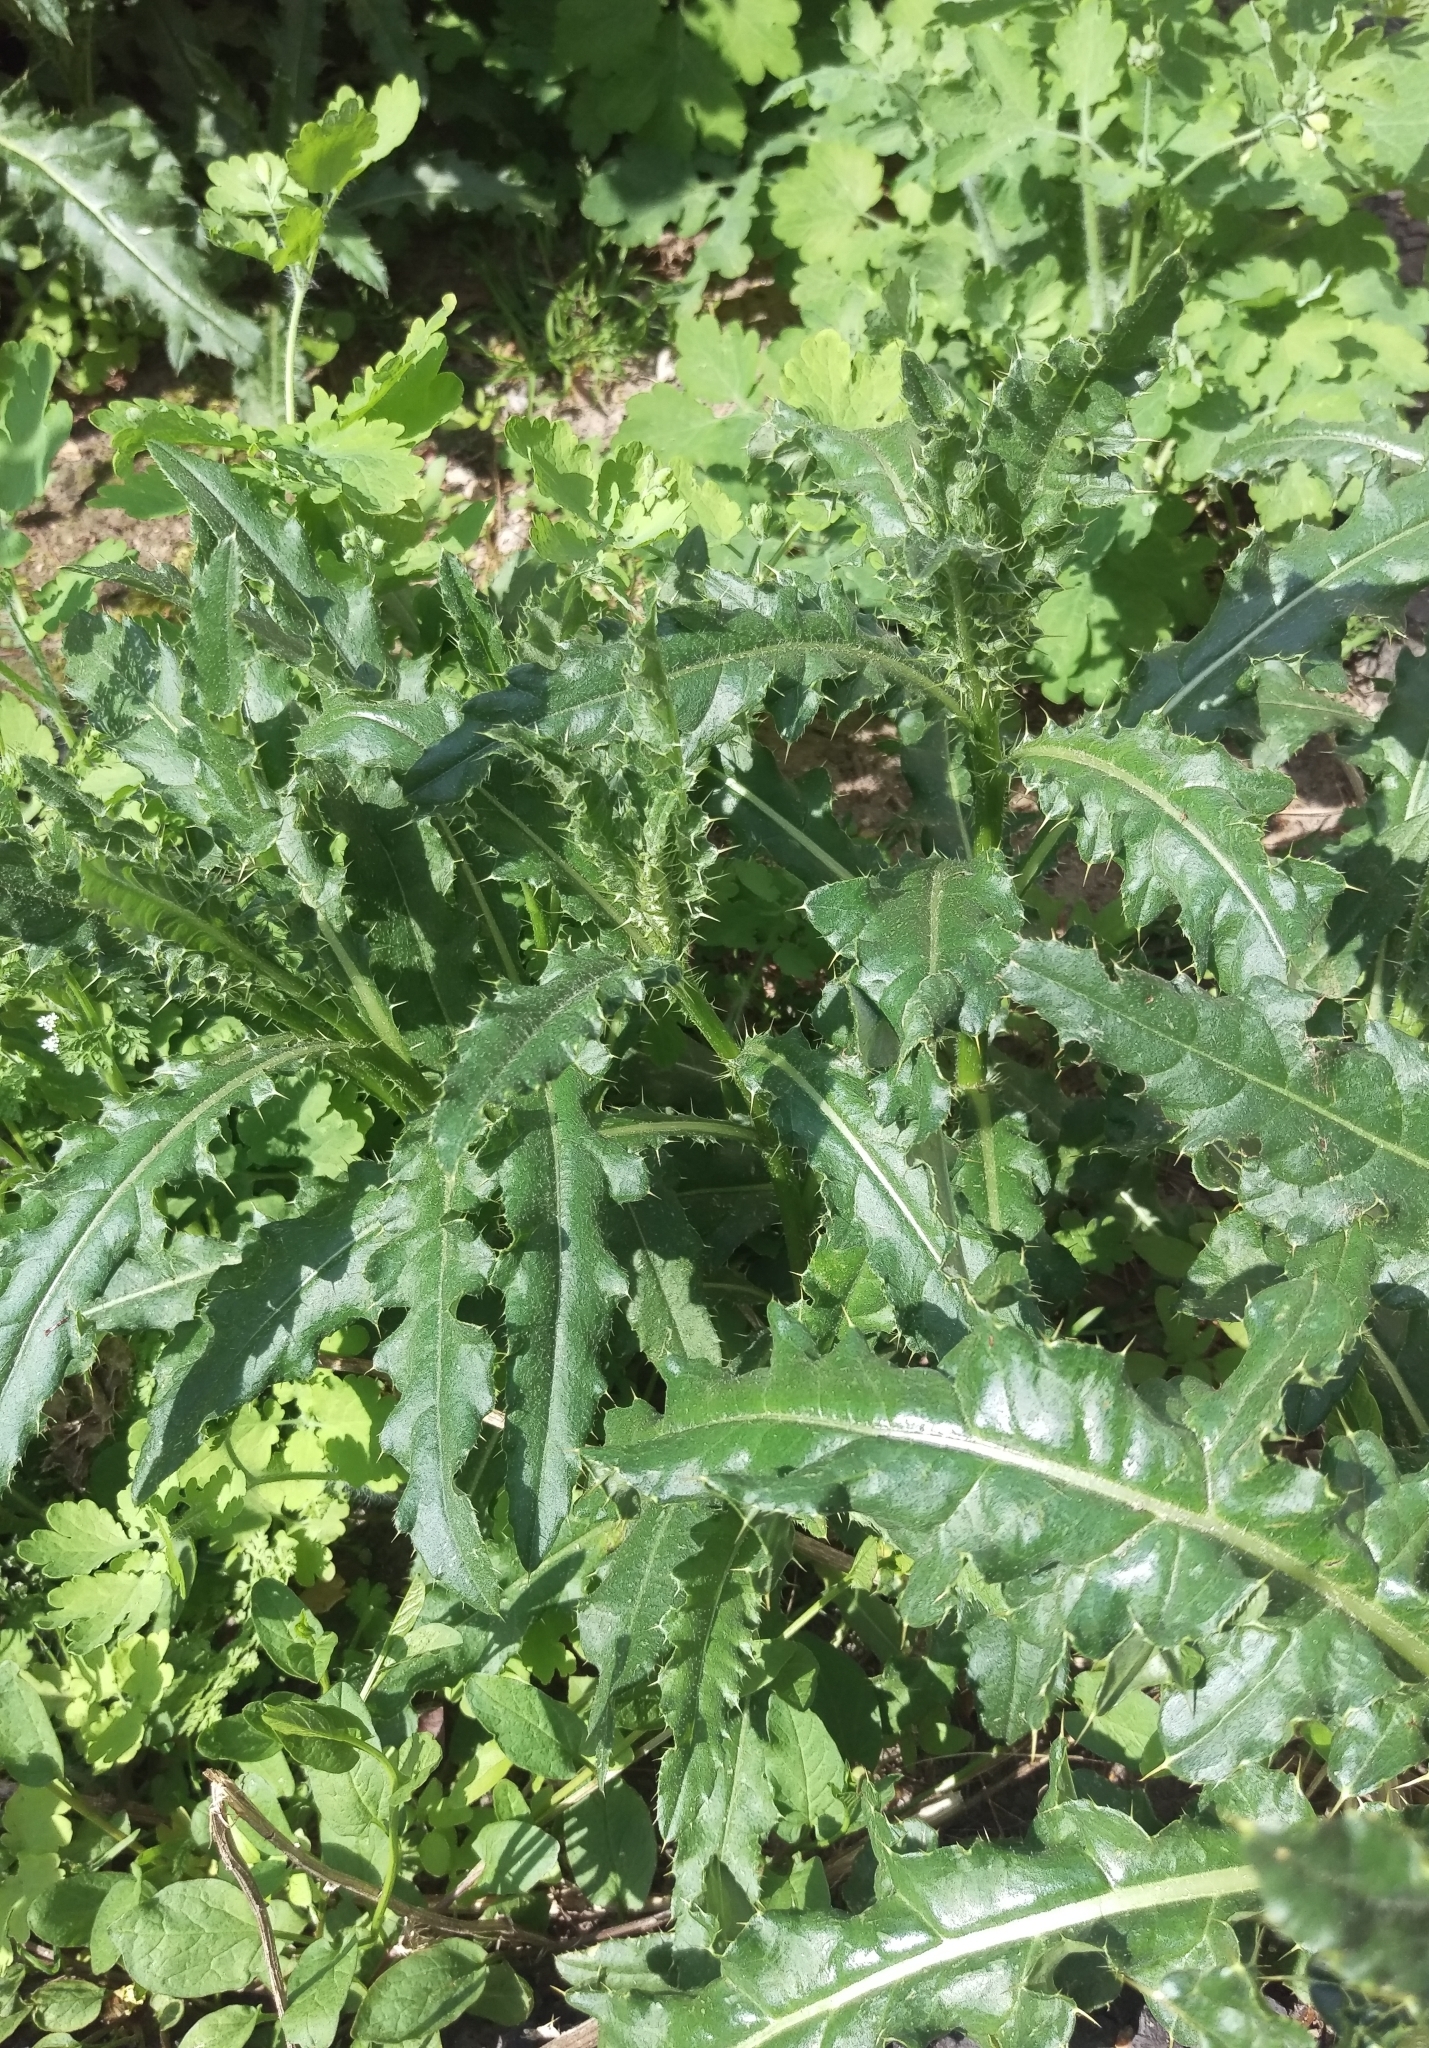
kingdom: Plantae
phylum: Tracheophyta
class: Magnoliopsida
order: Asterales
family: Asteraceae
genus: Cirsium
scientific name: Cirsium arvense
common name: Creeping thistle
